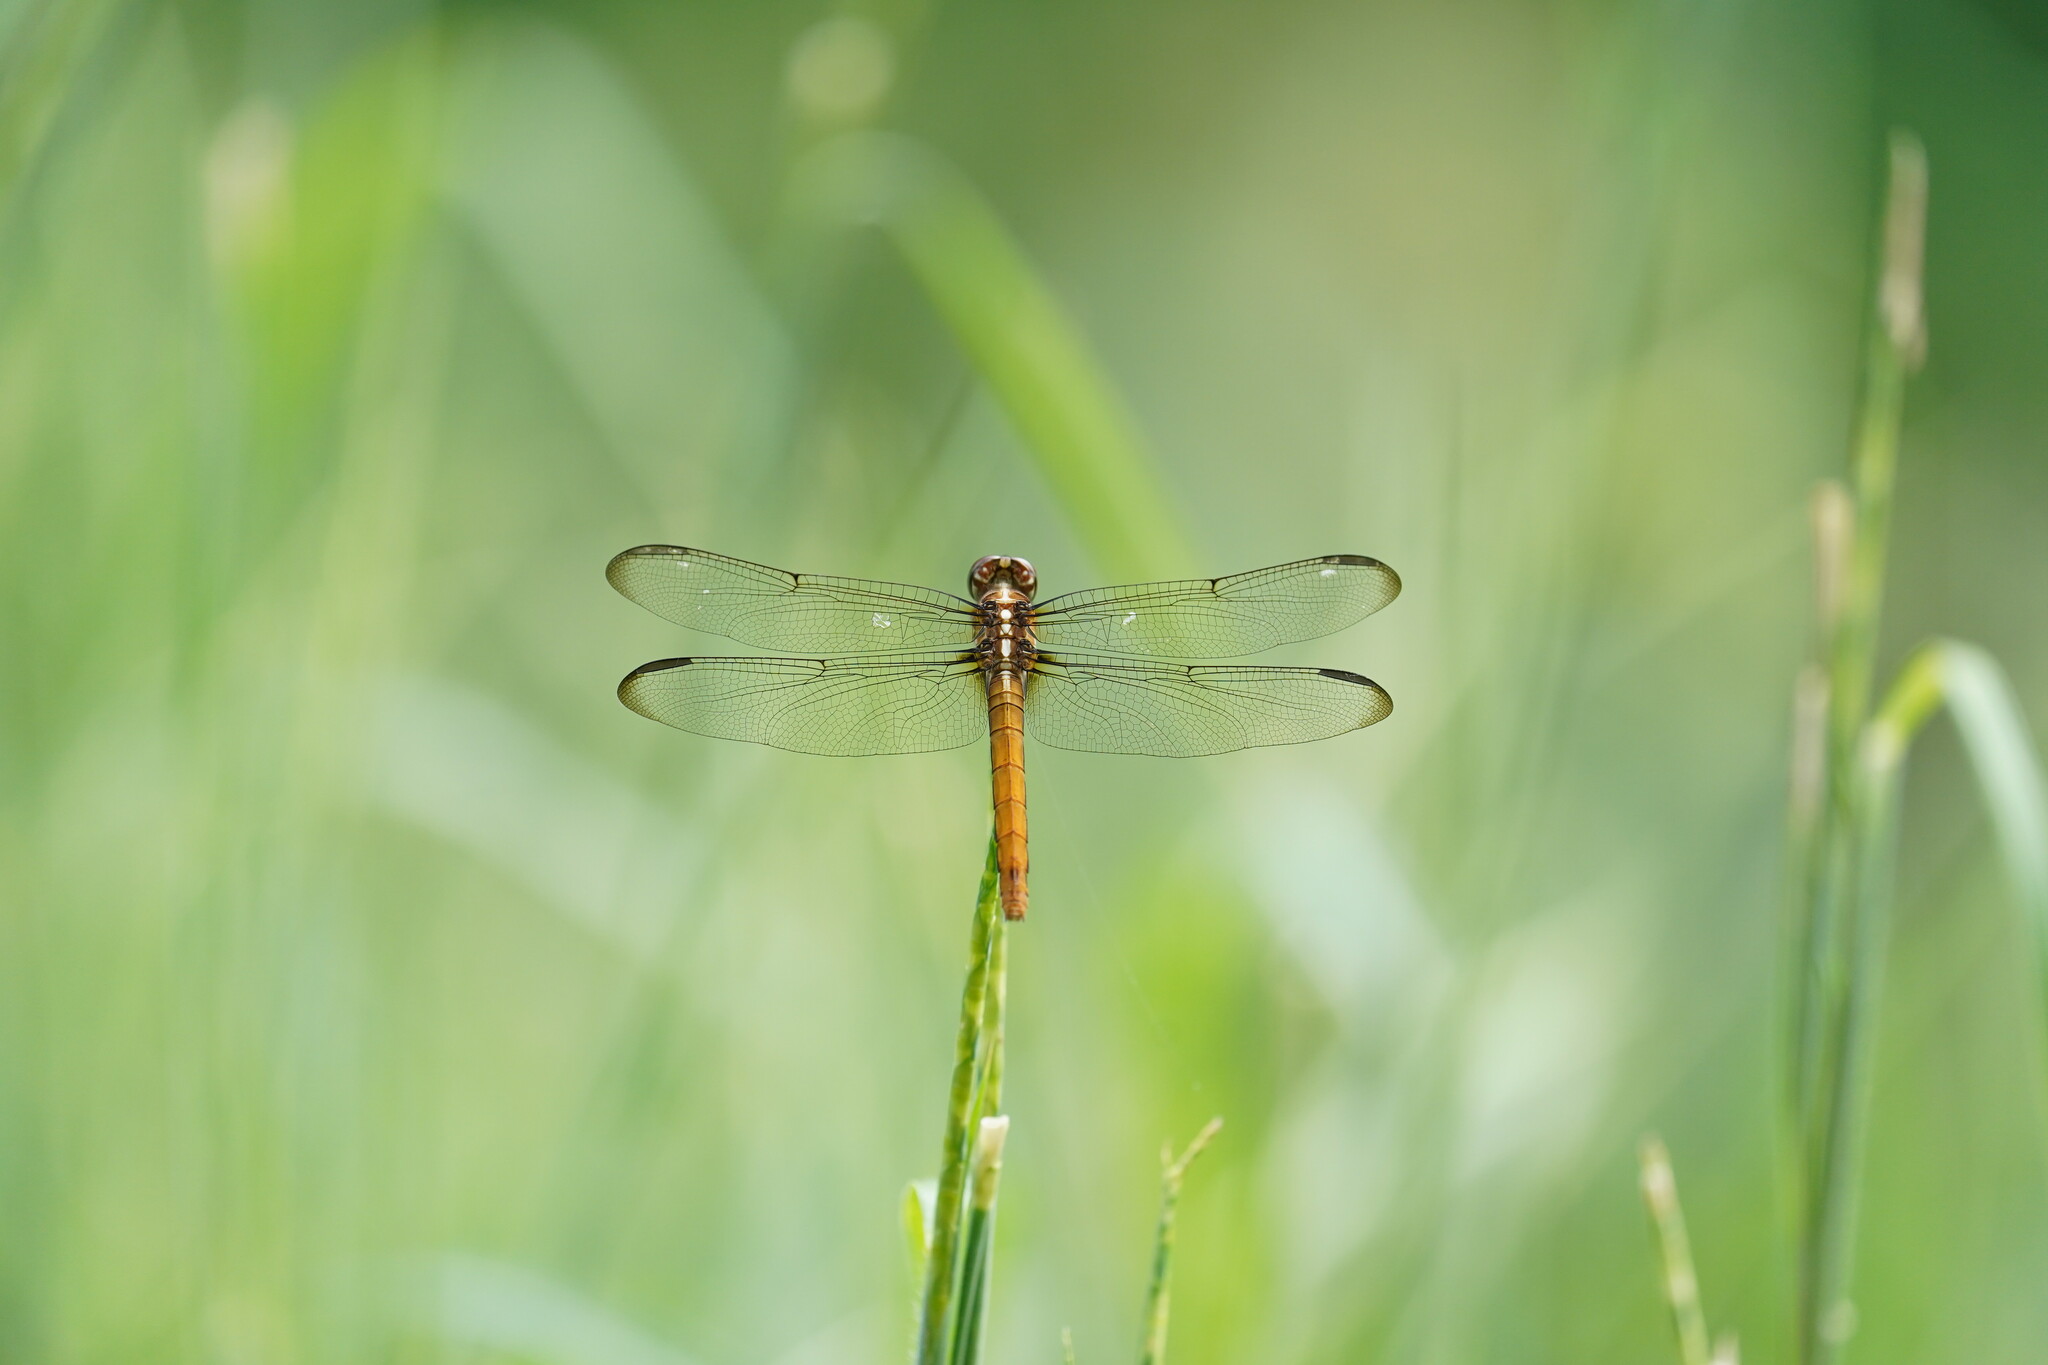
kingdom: Animalia
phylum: Arthropoda
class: Insecta
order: Odonata
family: Libellulidae
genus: Orthemis
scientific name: Orthemis ferruginea
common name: Roseate skimmer
